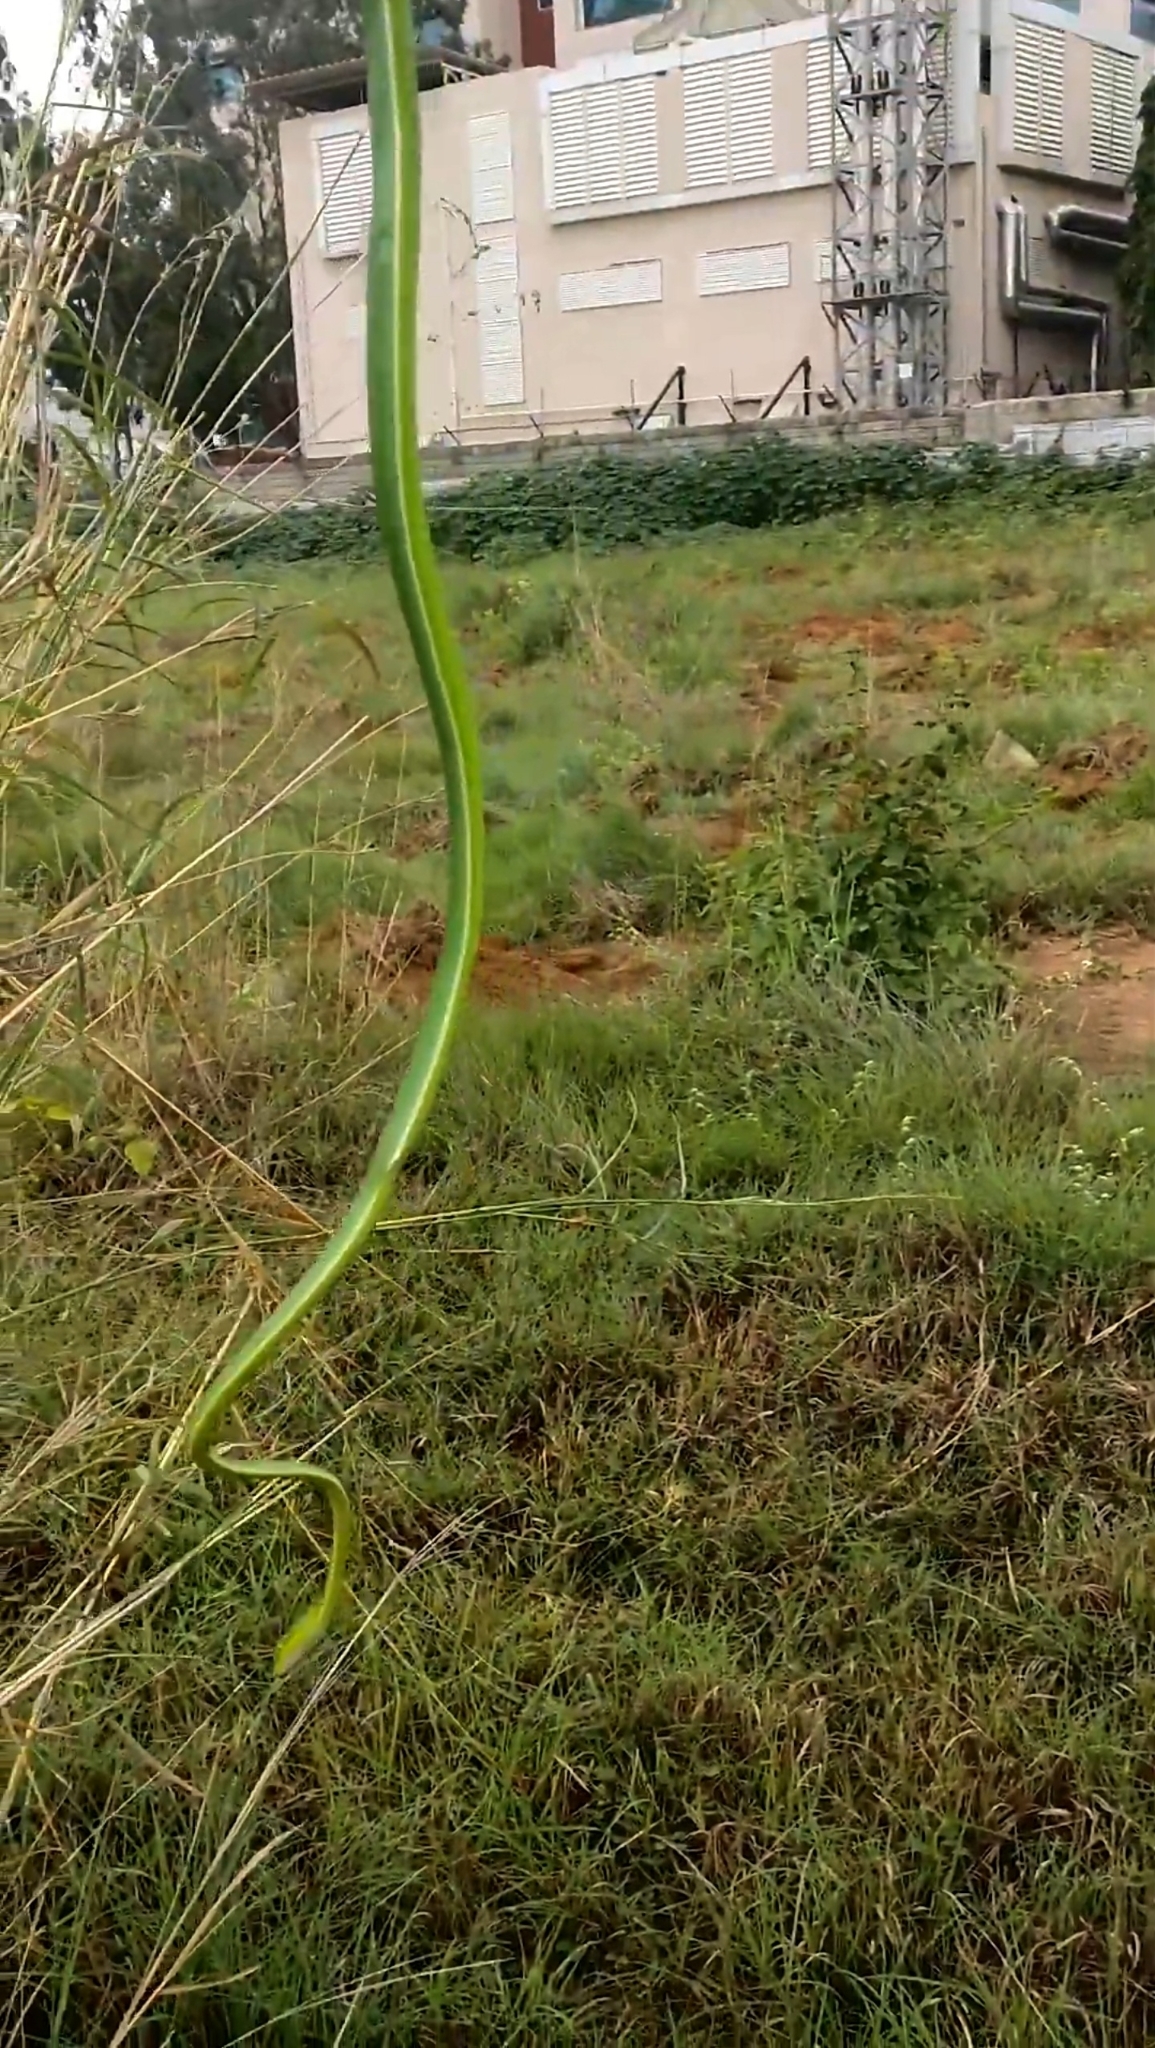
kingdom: Animalia
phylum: Chordata
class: Squamata
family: Colubridae
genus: Ahaetulla
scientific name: Ahaetulla oxyrhyncha
